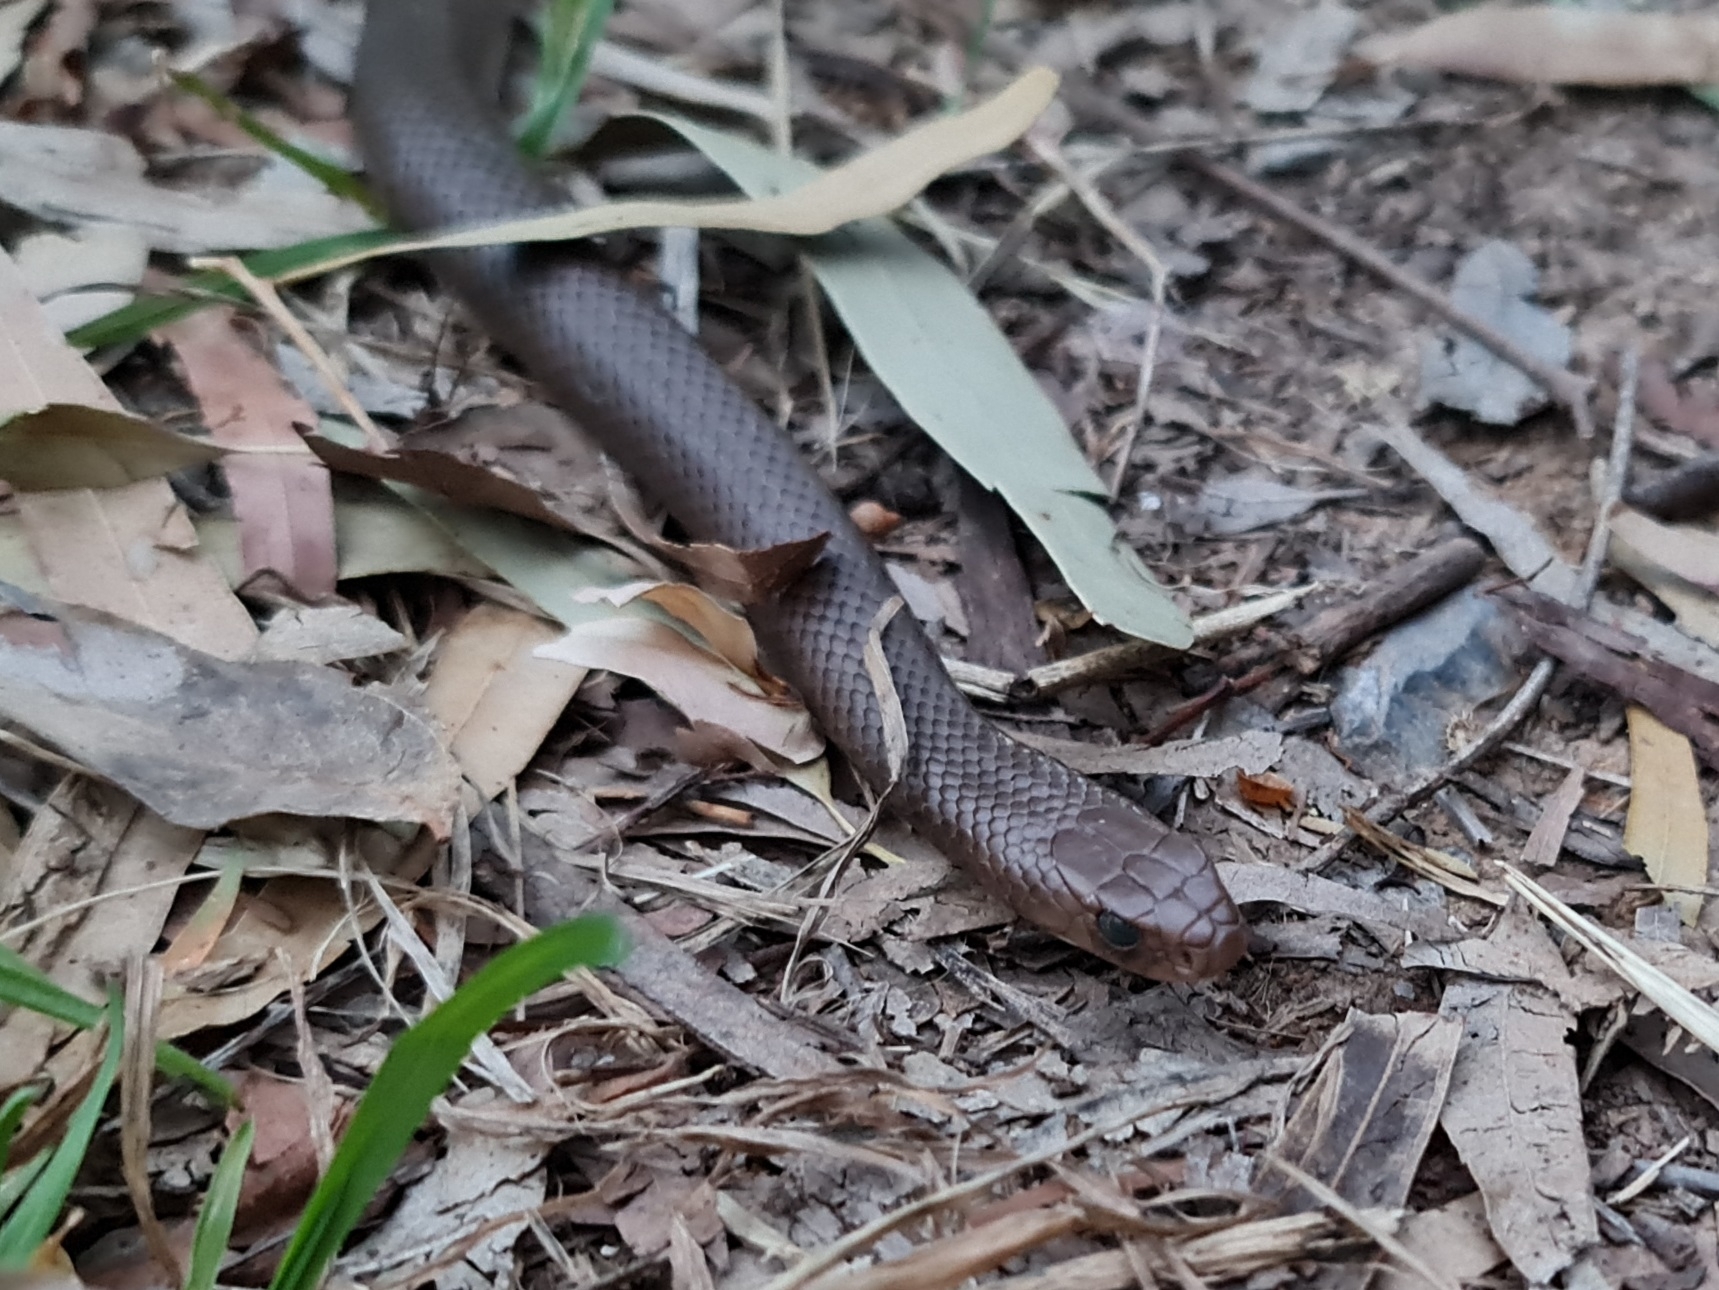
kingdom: Animalia
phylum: Chordata
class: Squamata
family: Elapidae
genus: Pseudonaja
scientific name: Pseudonaja textilis
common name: Eastern brown snake
